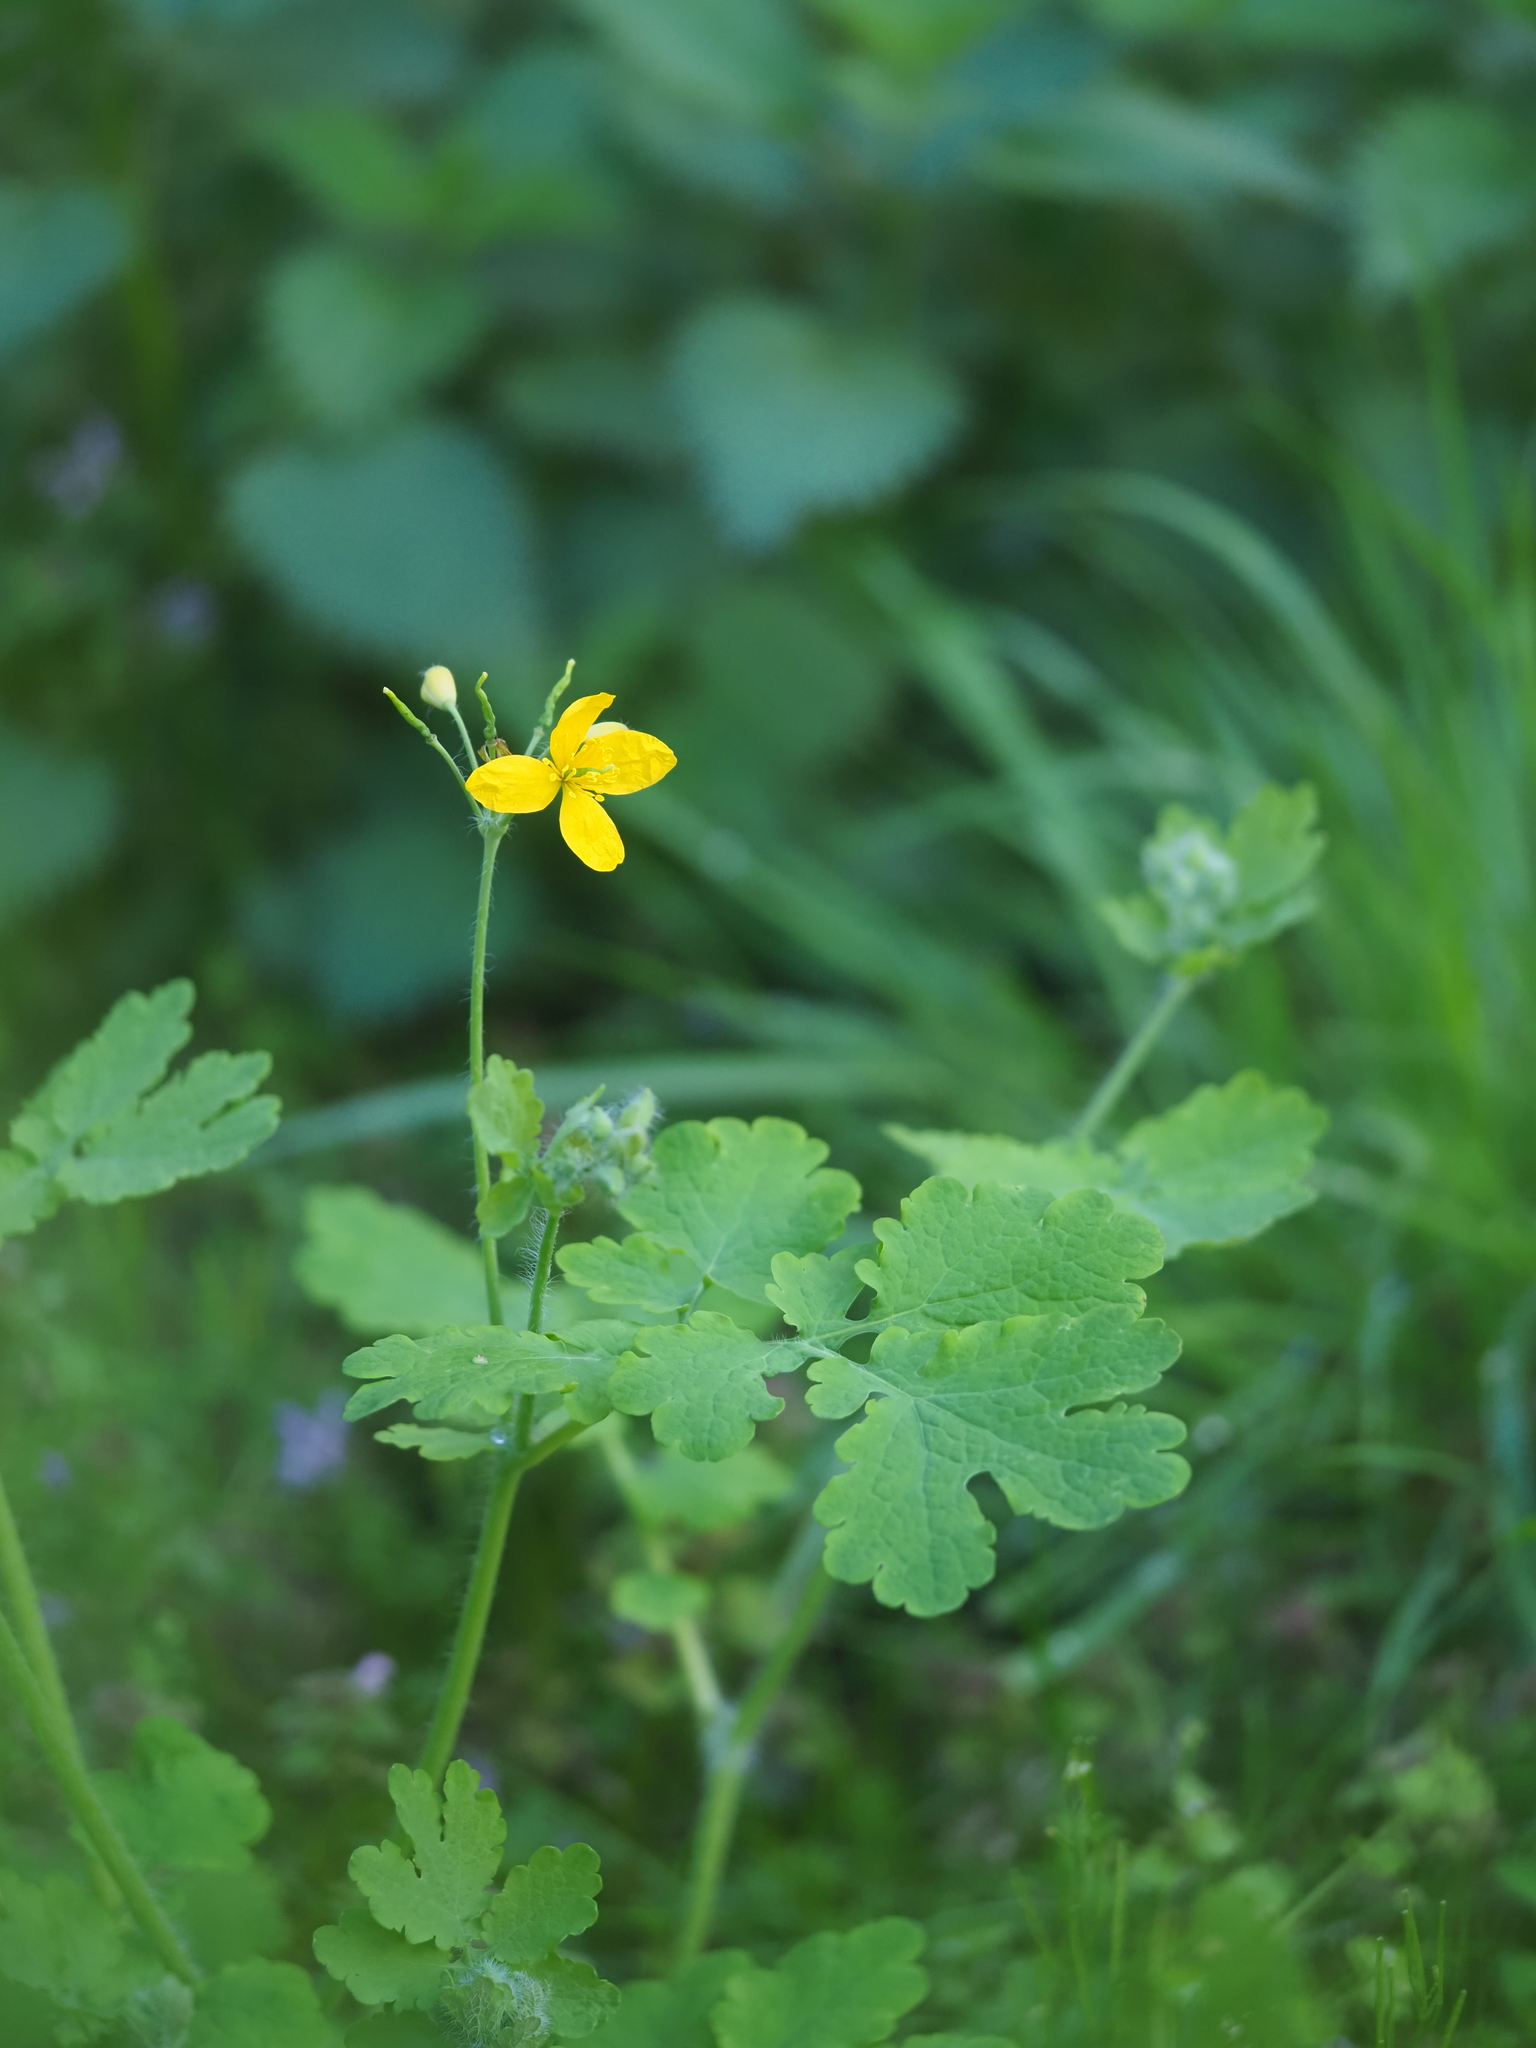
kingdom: Plantae
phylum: Tracheophyta
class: Magnoliopsida
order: Ranunculales
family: Papaveraceae
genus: Chelidonium
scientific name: Chelidonium majus
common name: Greater celandine
